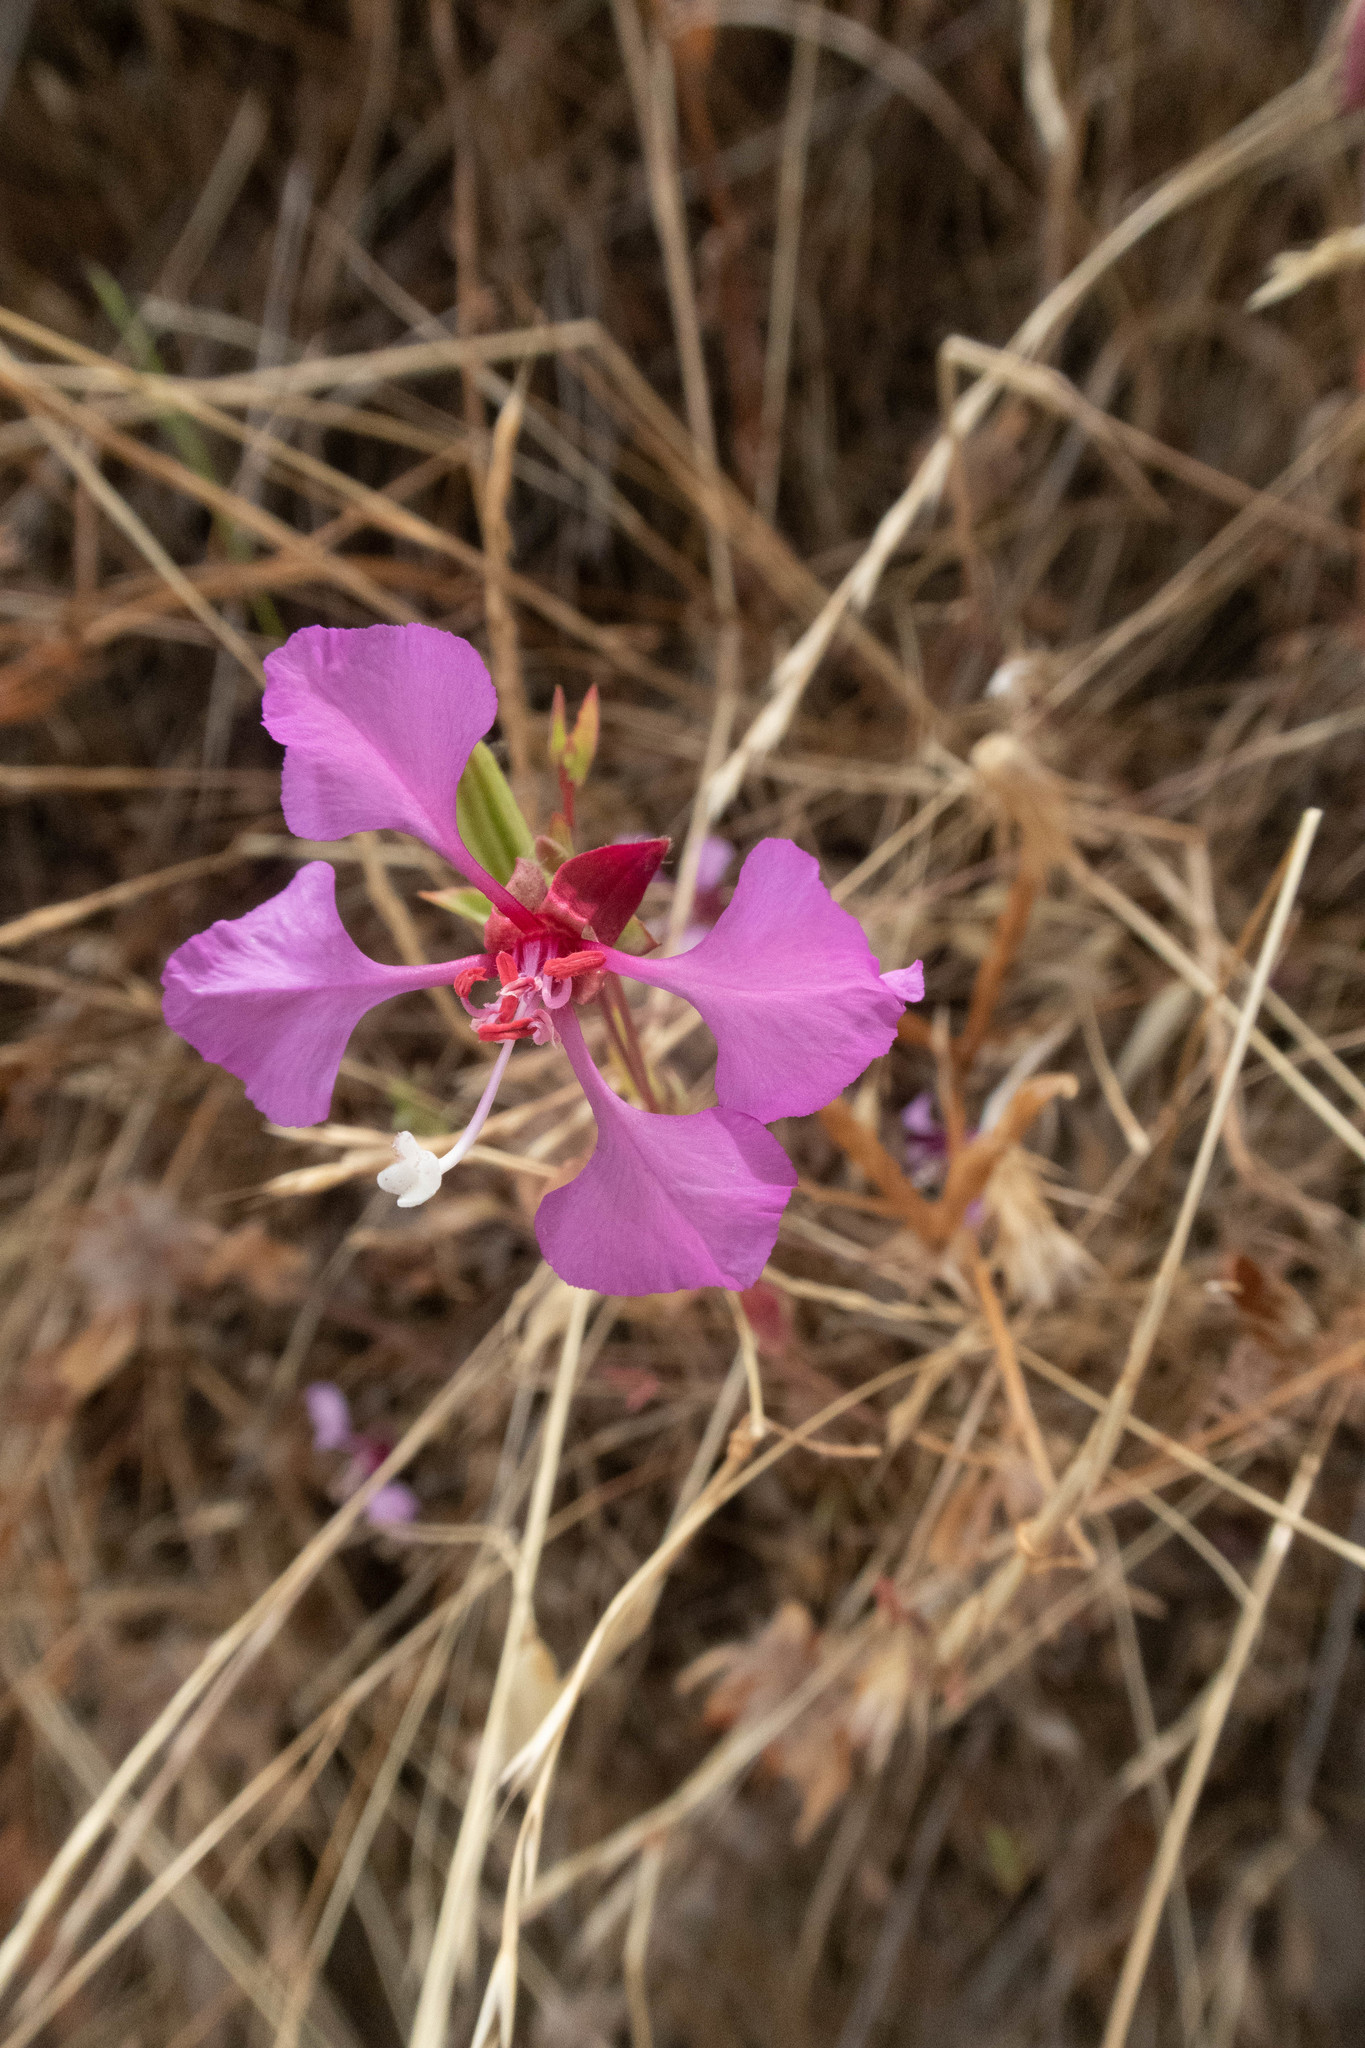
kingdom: Plantae
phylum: Tracheophyta
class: Magnoliopsida
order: Myrtales
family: Onagraceae
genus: Clarkia
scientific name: Clarkia unguiculata
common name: Clarkia
